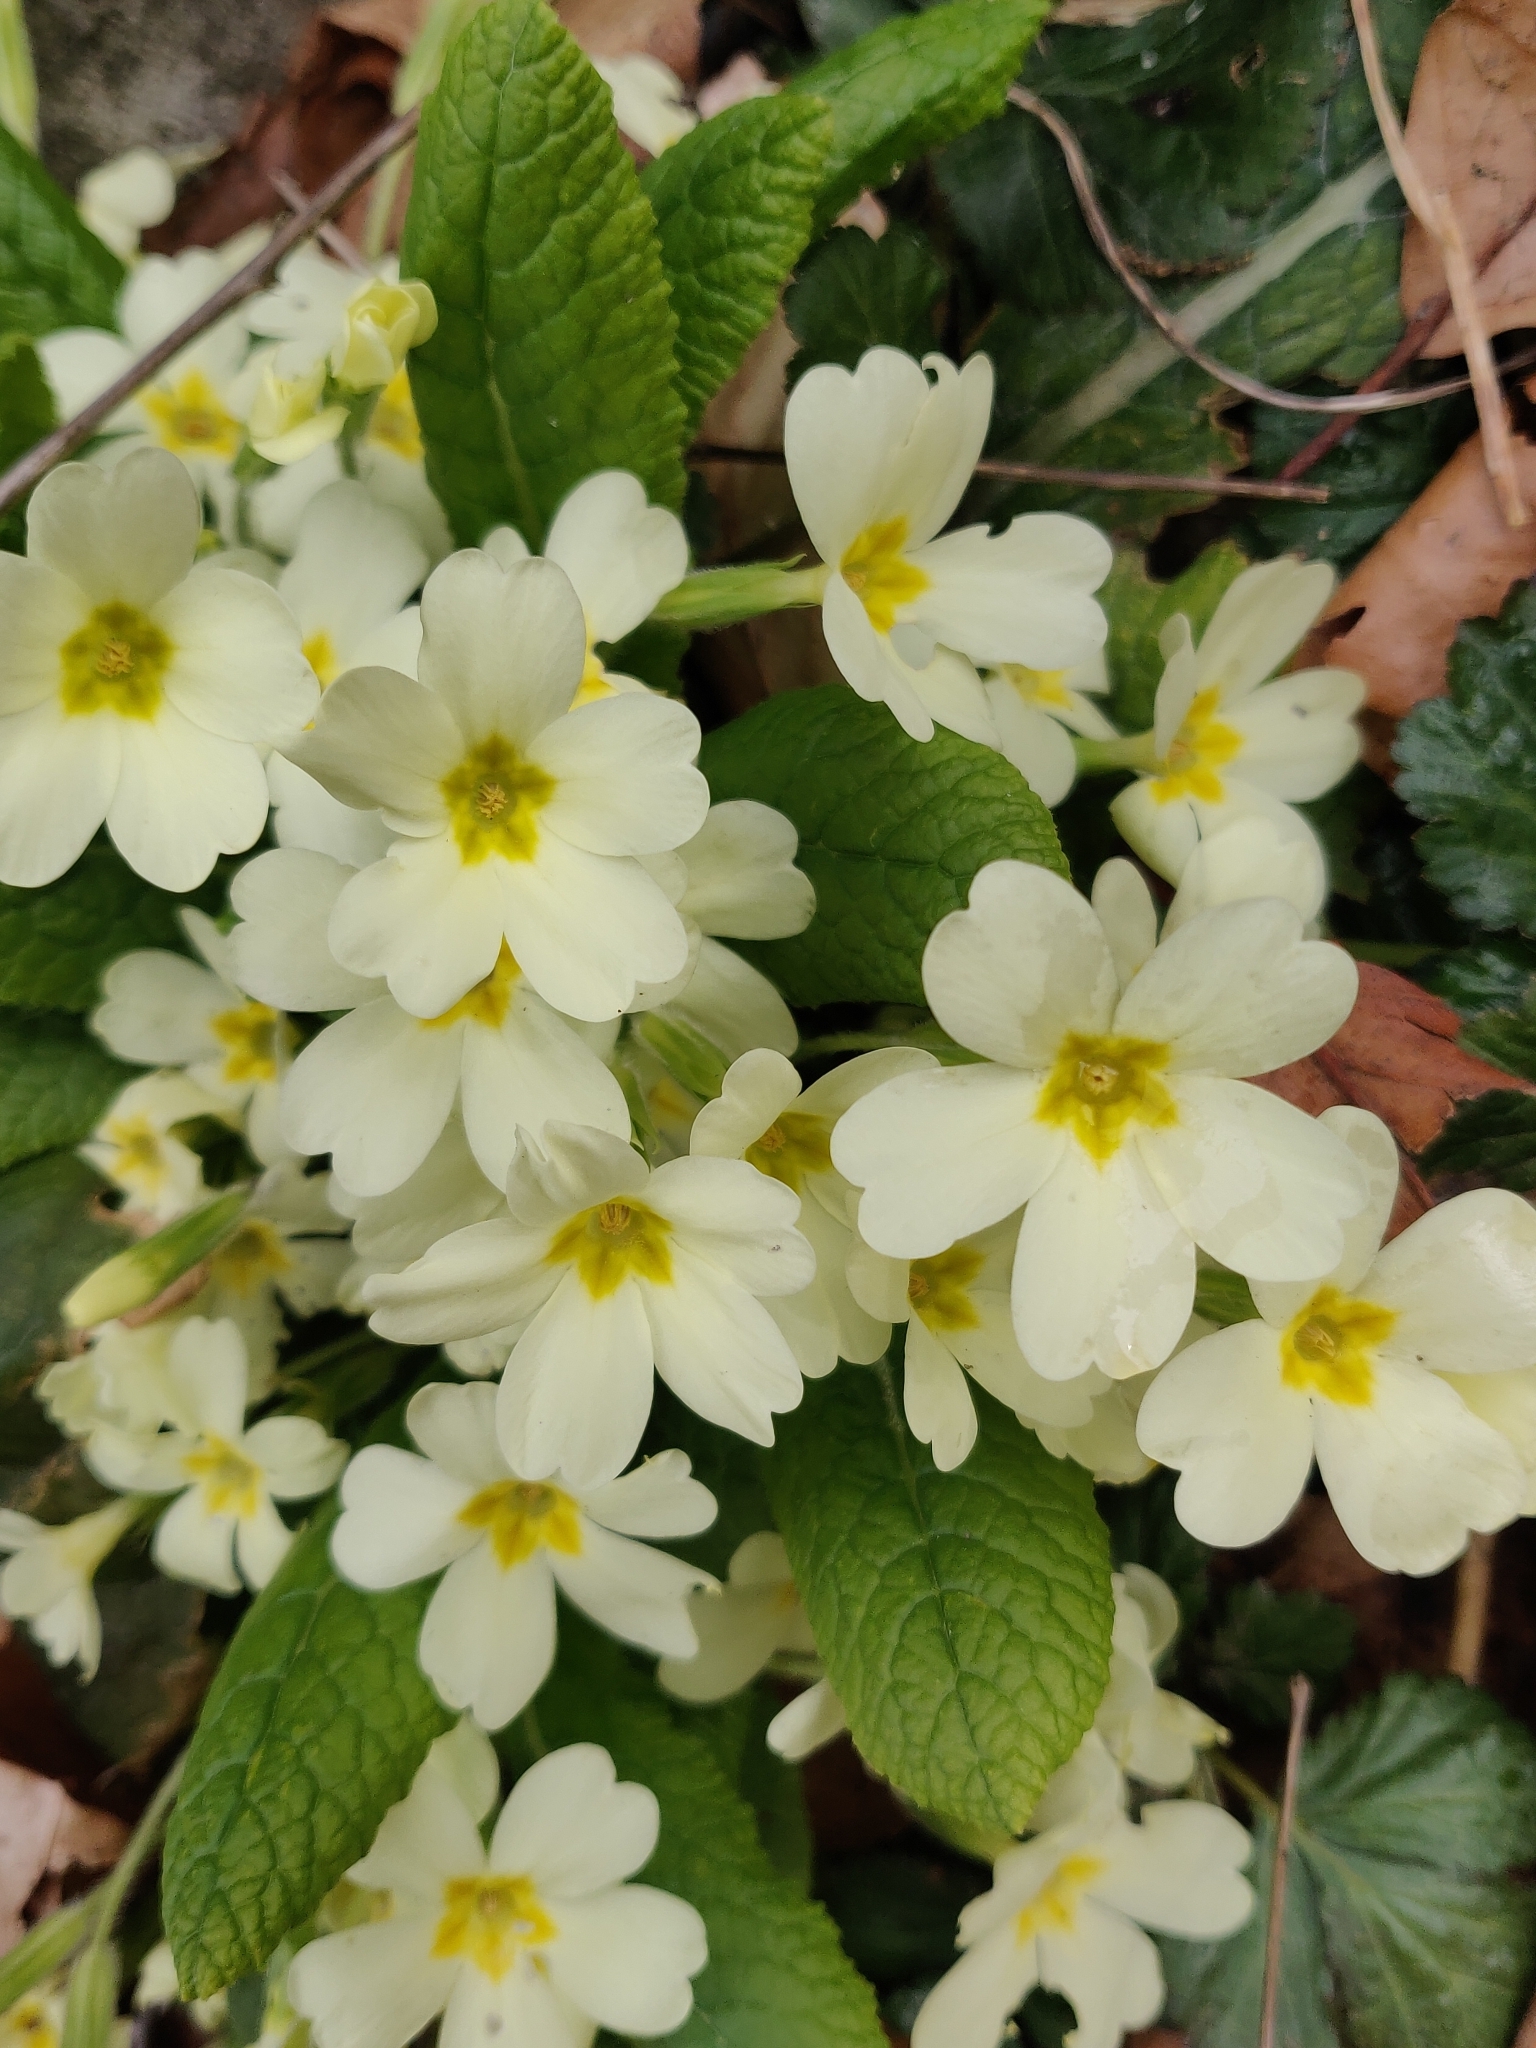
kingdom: Plantae
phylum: Tracheophyta
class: Magnoliopsida
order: Ericales
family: Primulaceae
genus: Primula
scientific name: Primula vulgaris
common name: Primrose
